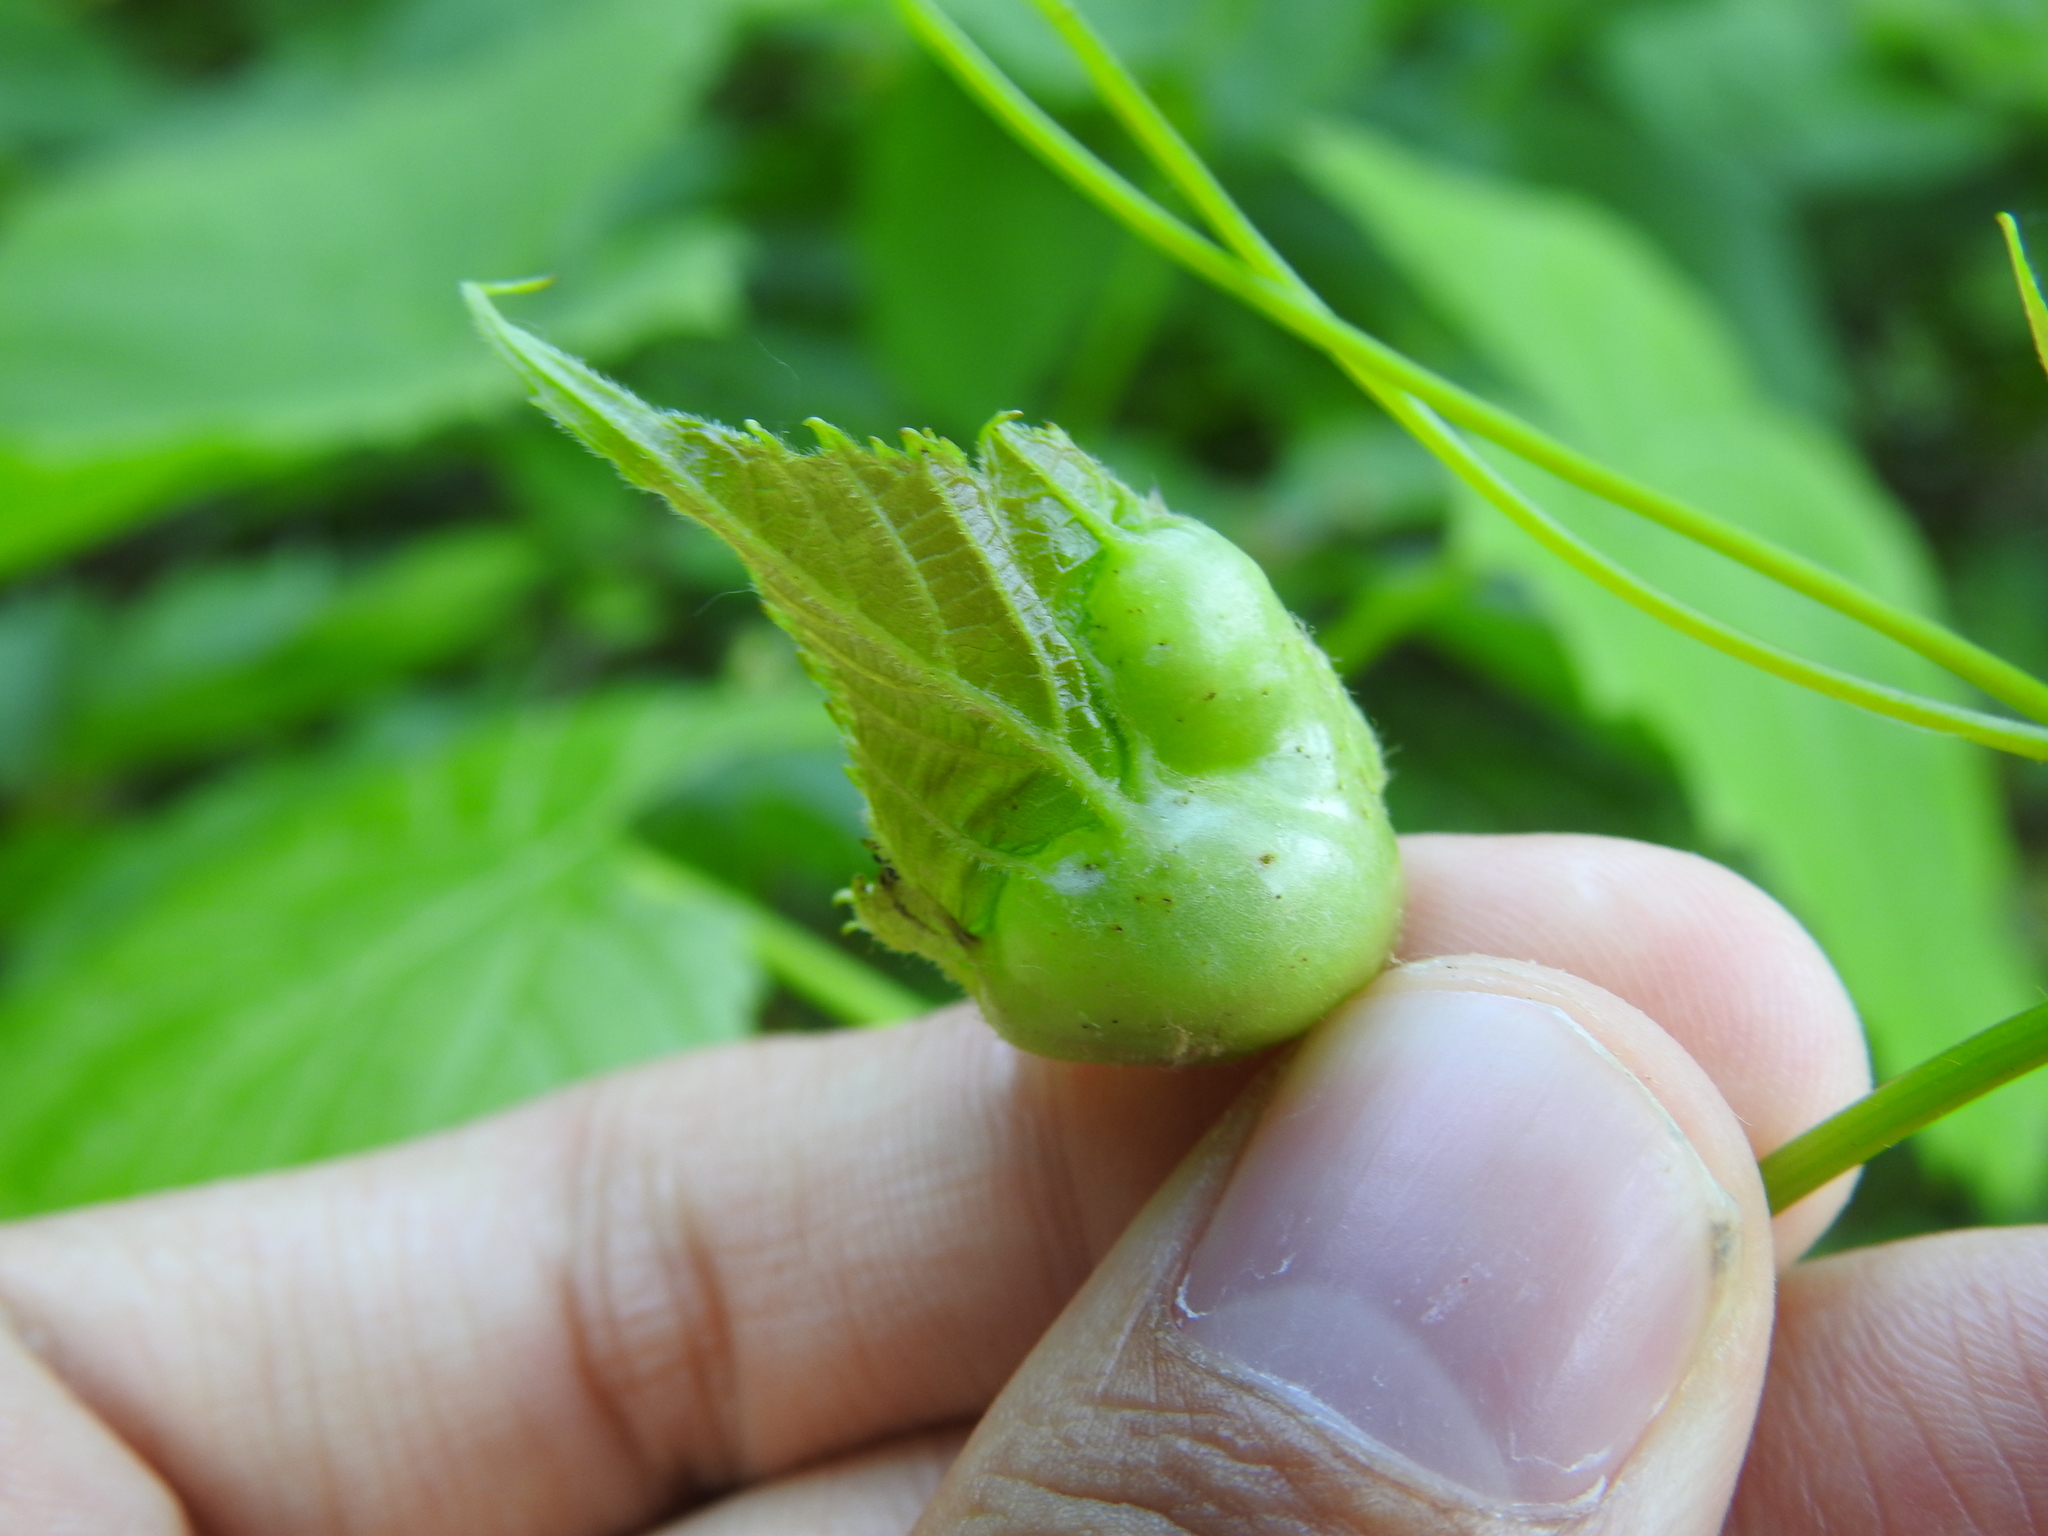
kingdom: Animalia
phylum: Arthropoda
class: Insecta
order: Diptera
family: Cecidomyiidae
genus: Vitisiella
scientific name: Vitisiella brevicauda
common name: Grape tumid gallmaker midge
